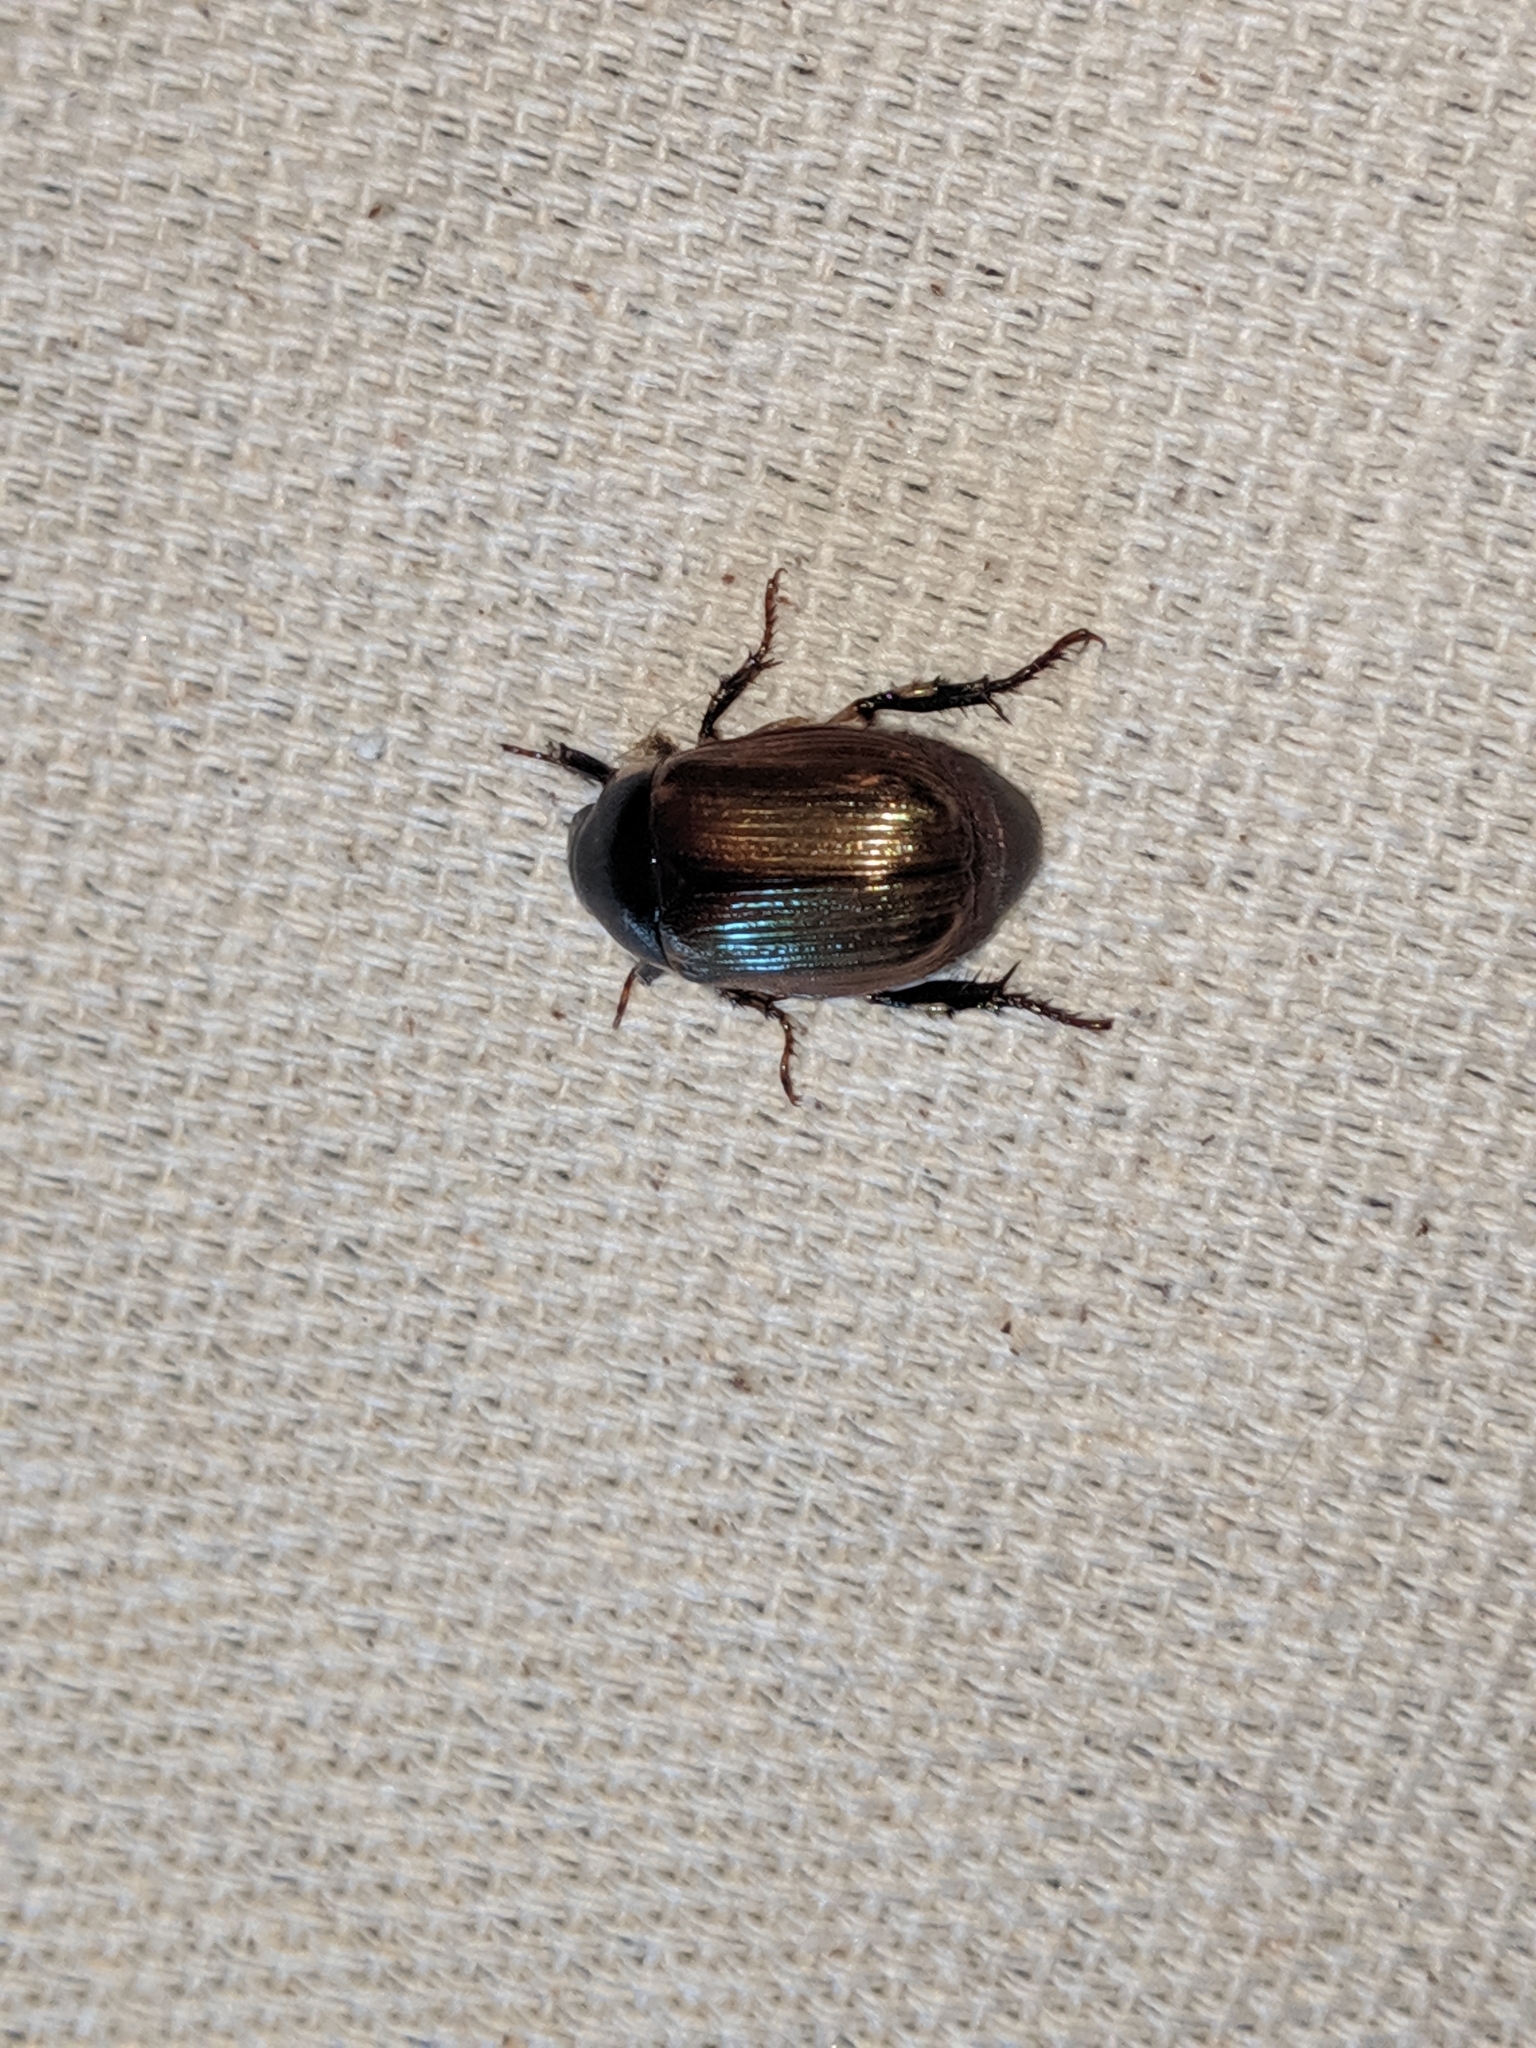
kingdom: Animalia
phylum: Arthropoda
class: Insecta
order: Coleoptera
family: Scarabaeidae
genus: Callistethus
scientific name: Callistethus marginatus
